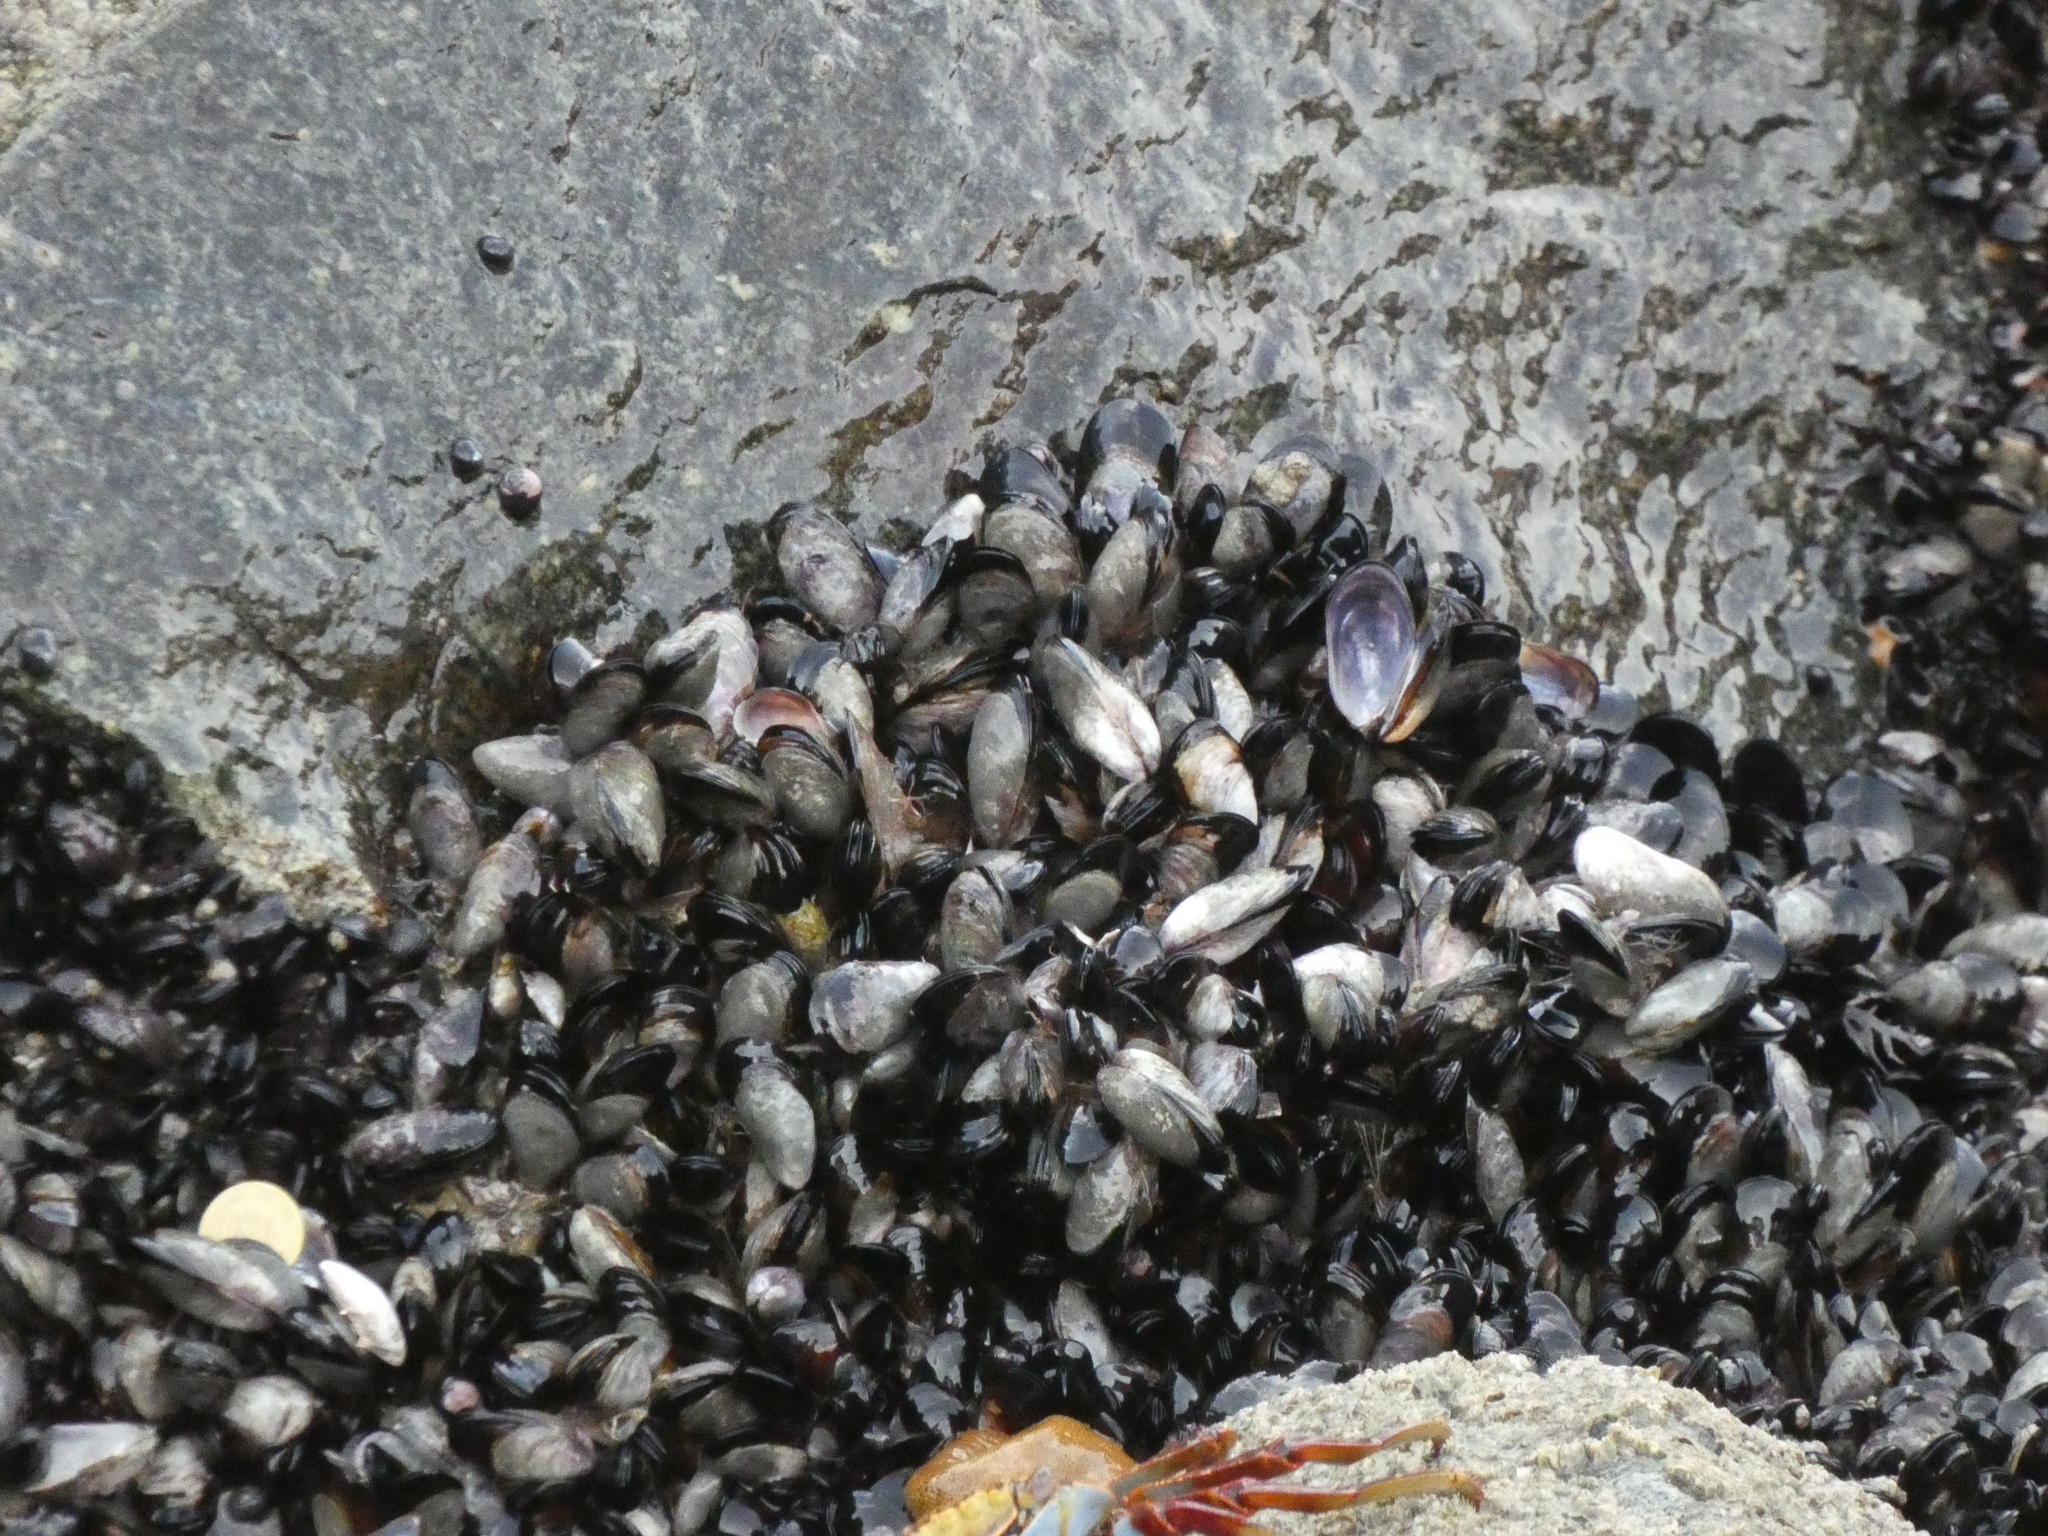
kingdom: Animalia
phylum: Mollusca
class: Bivalvia
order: Mytilida
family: Mytilidae
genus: Perumytilus
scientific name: Perumytilus purpuratus
